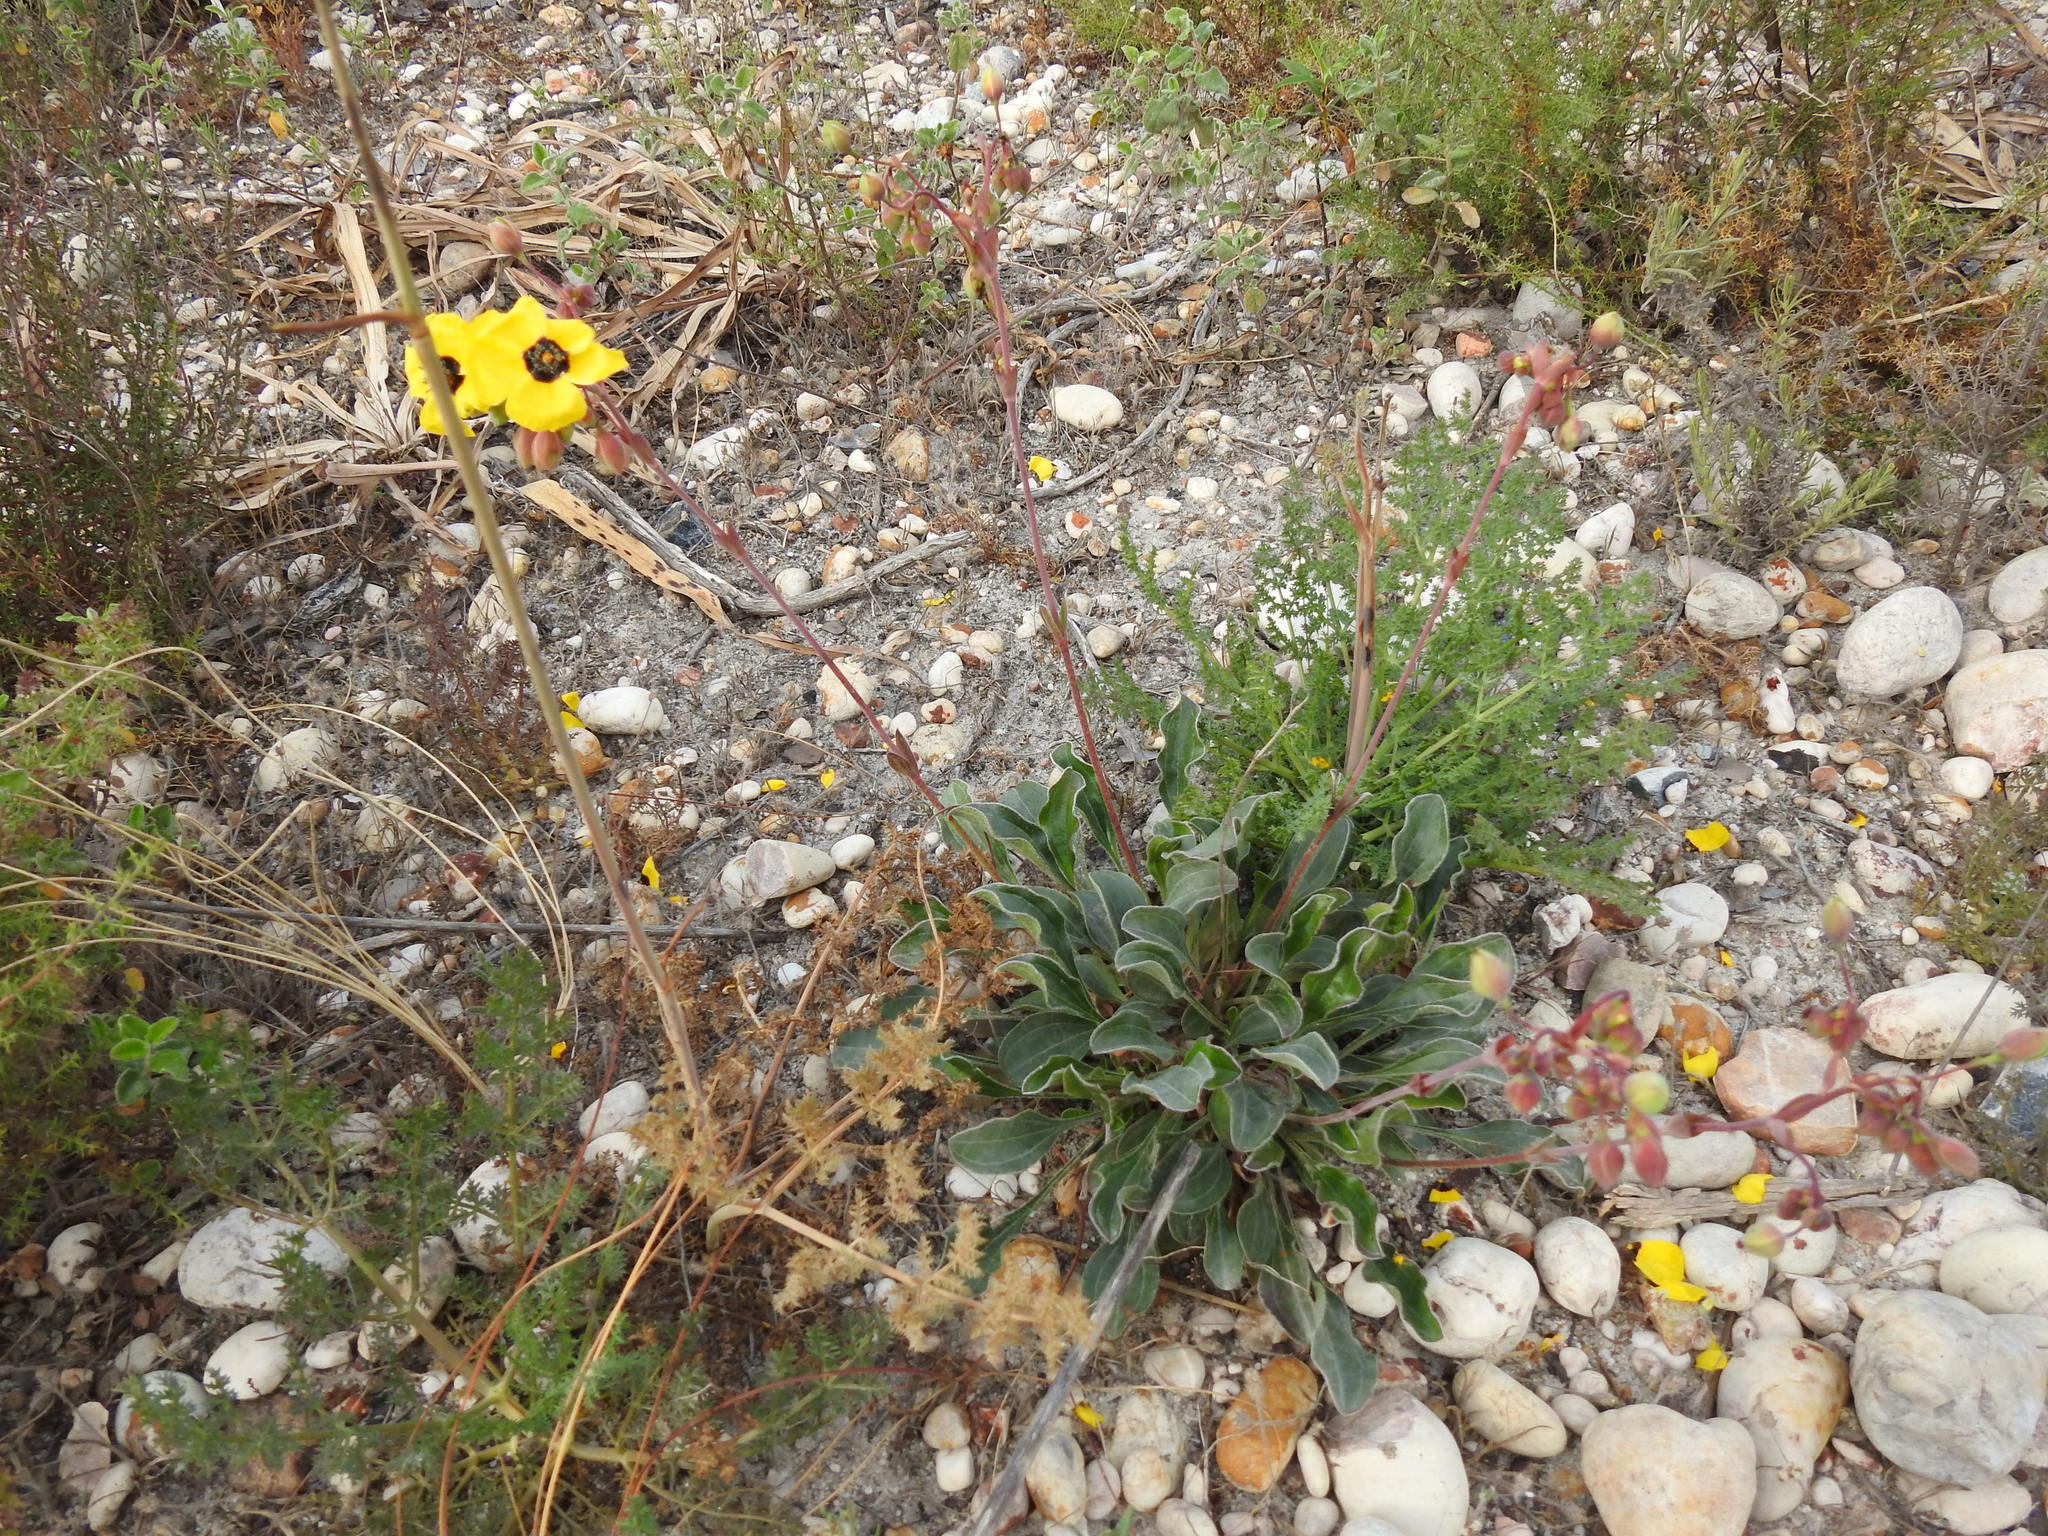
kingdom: Plantae
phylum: Tracheophyta
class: Magnoliopsida
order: Malvales
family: Cistaceae
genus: Tuberaria
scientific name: Tuberaria globulariifolia
